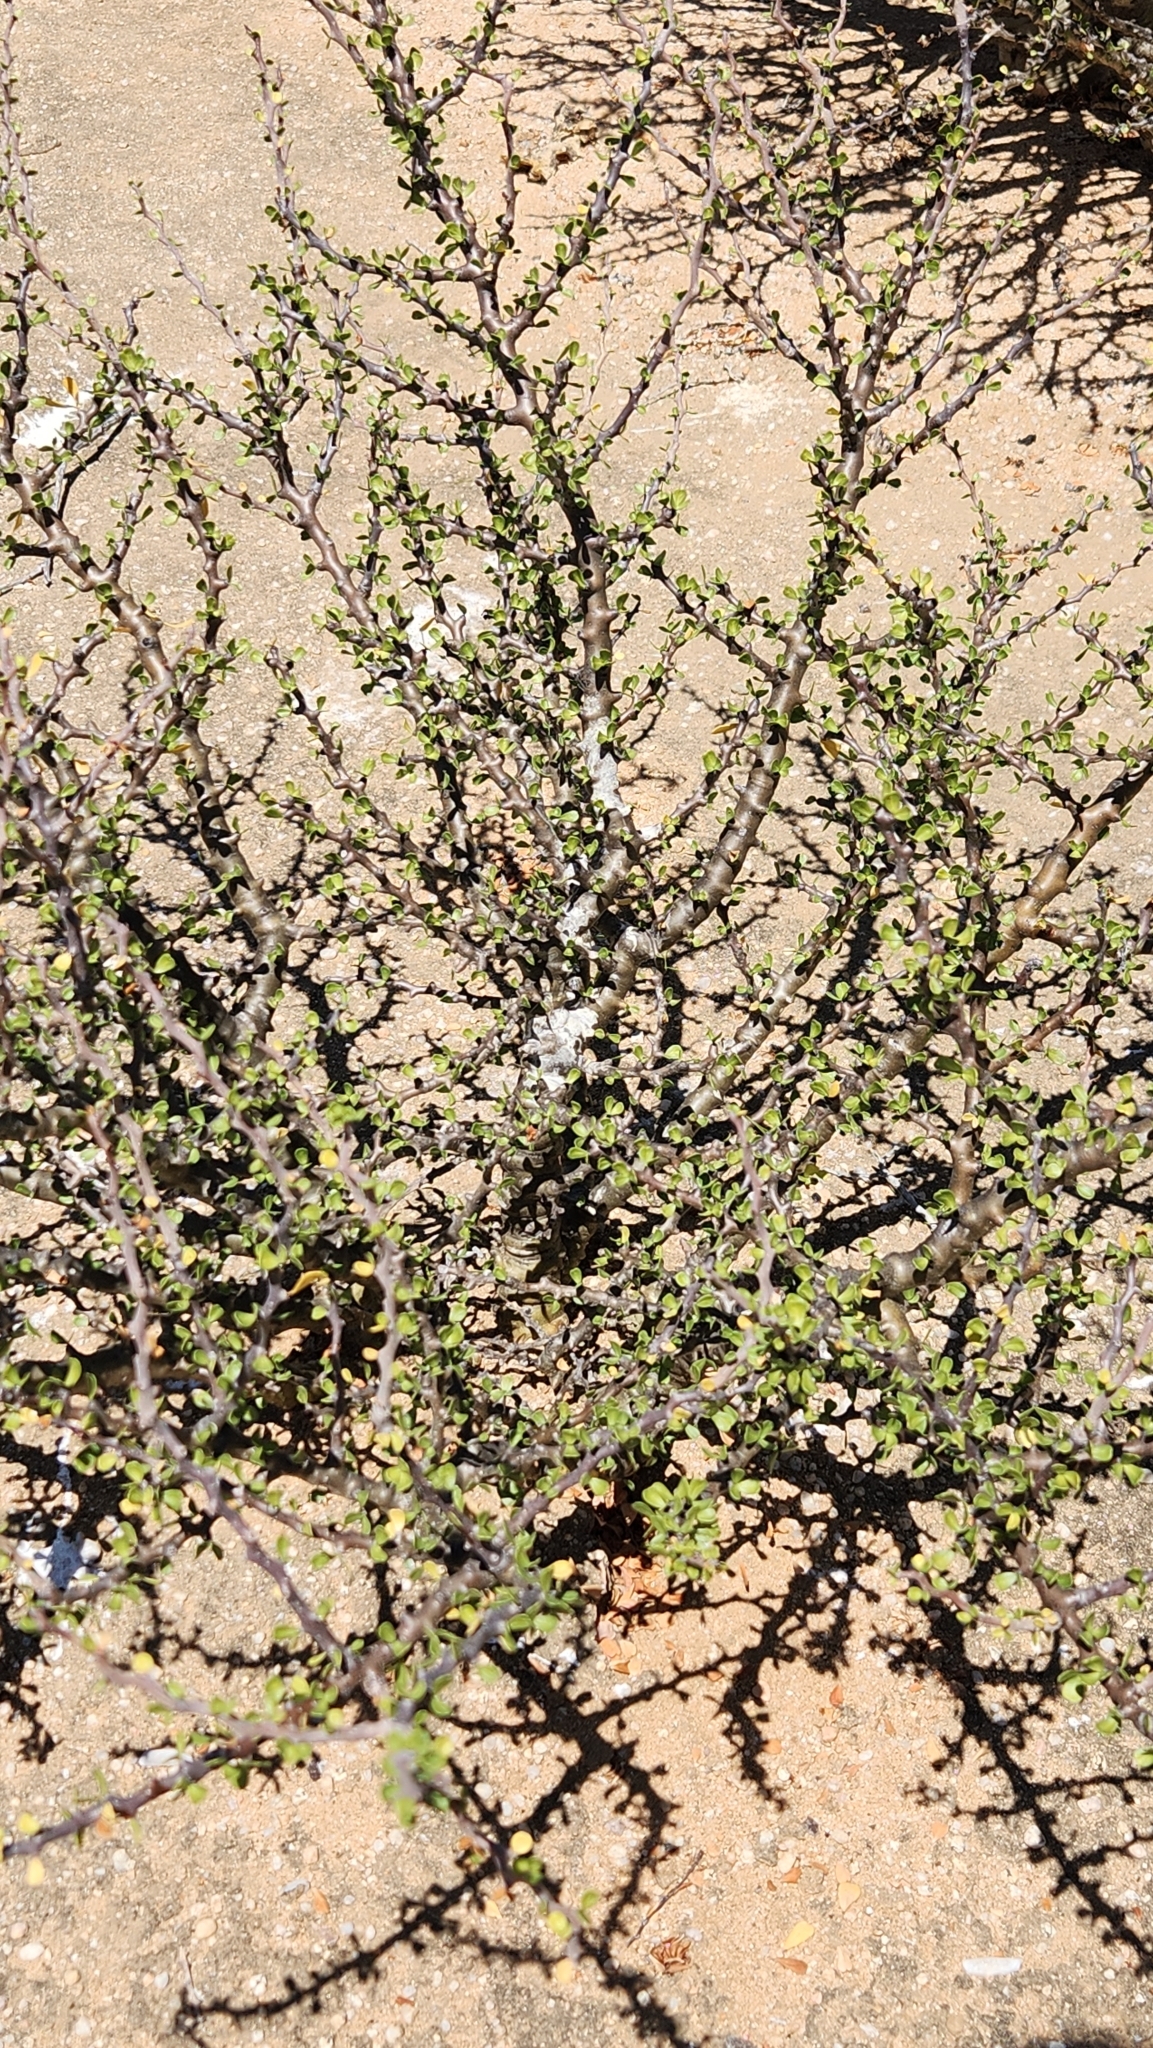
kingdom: Plantae
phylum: Tracheophyta
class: Magnoliopsida
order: Malpighiales
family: Euphorbiaceae
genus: Jatropha
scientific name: Jatropha cuneata
